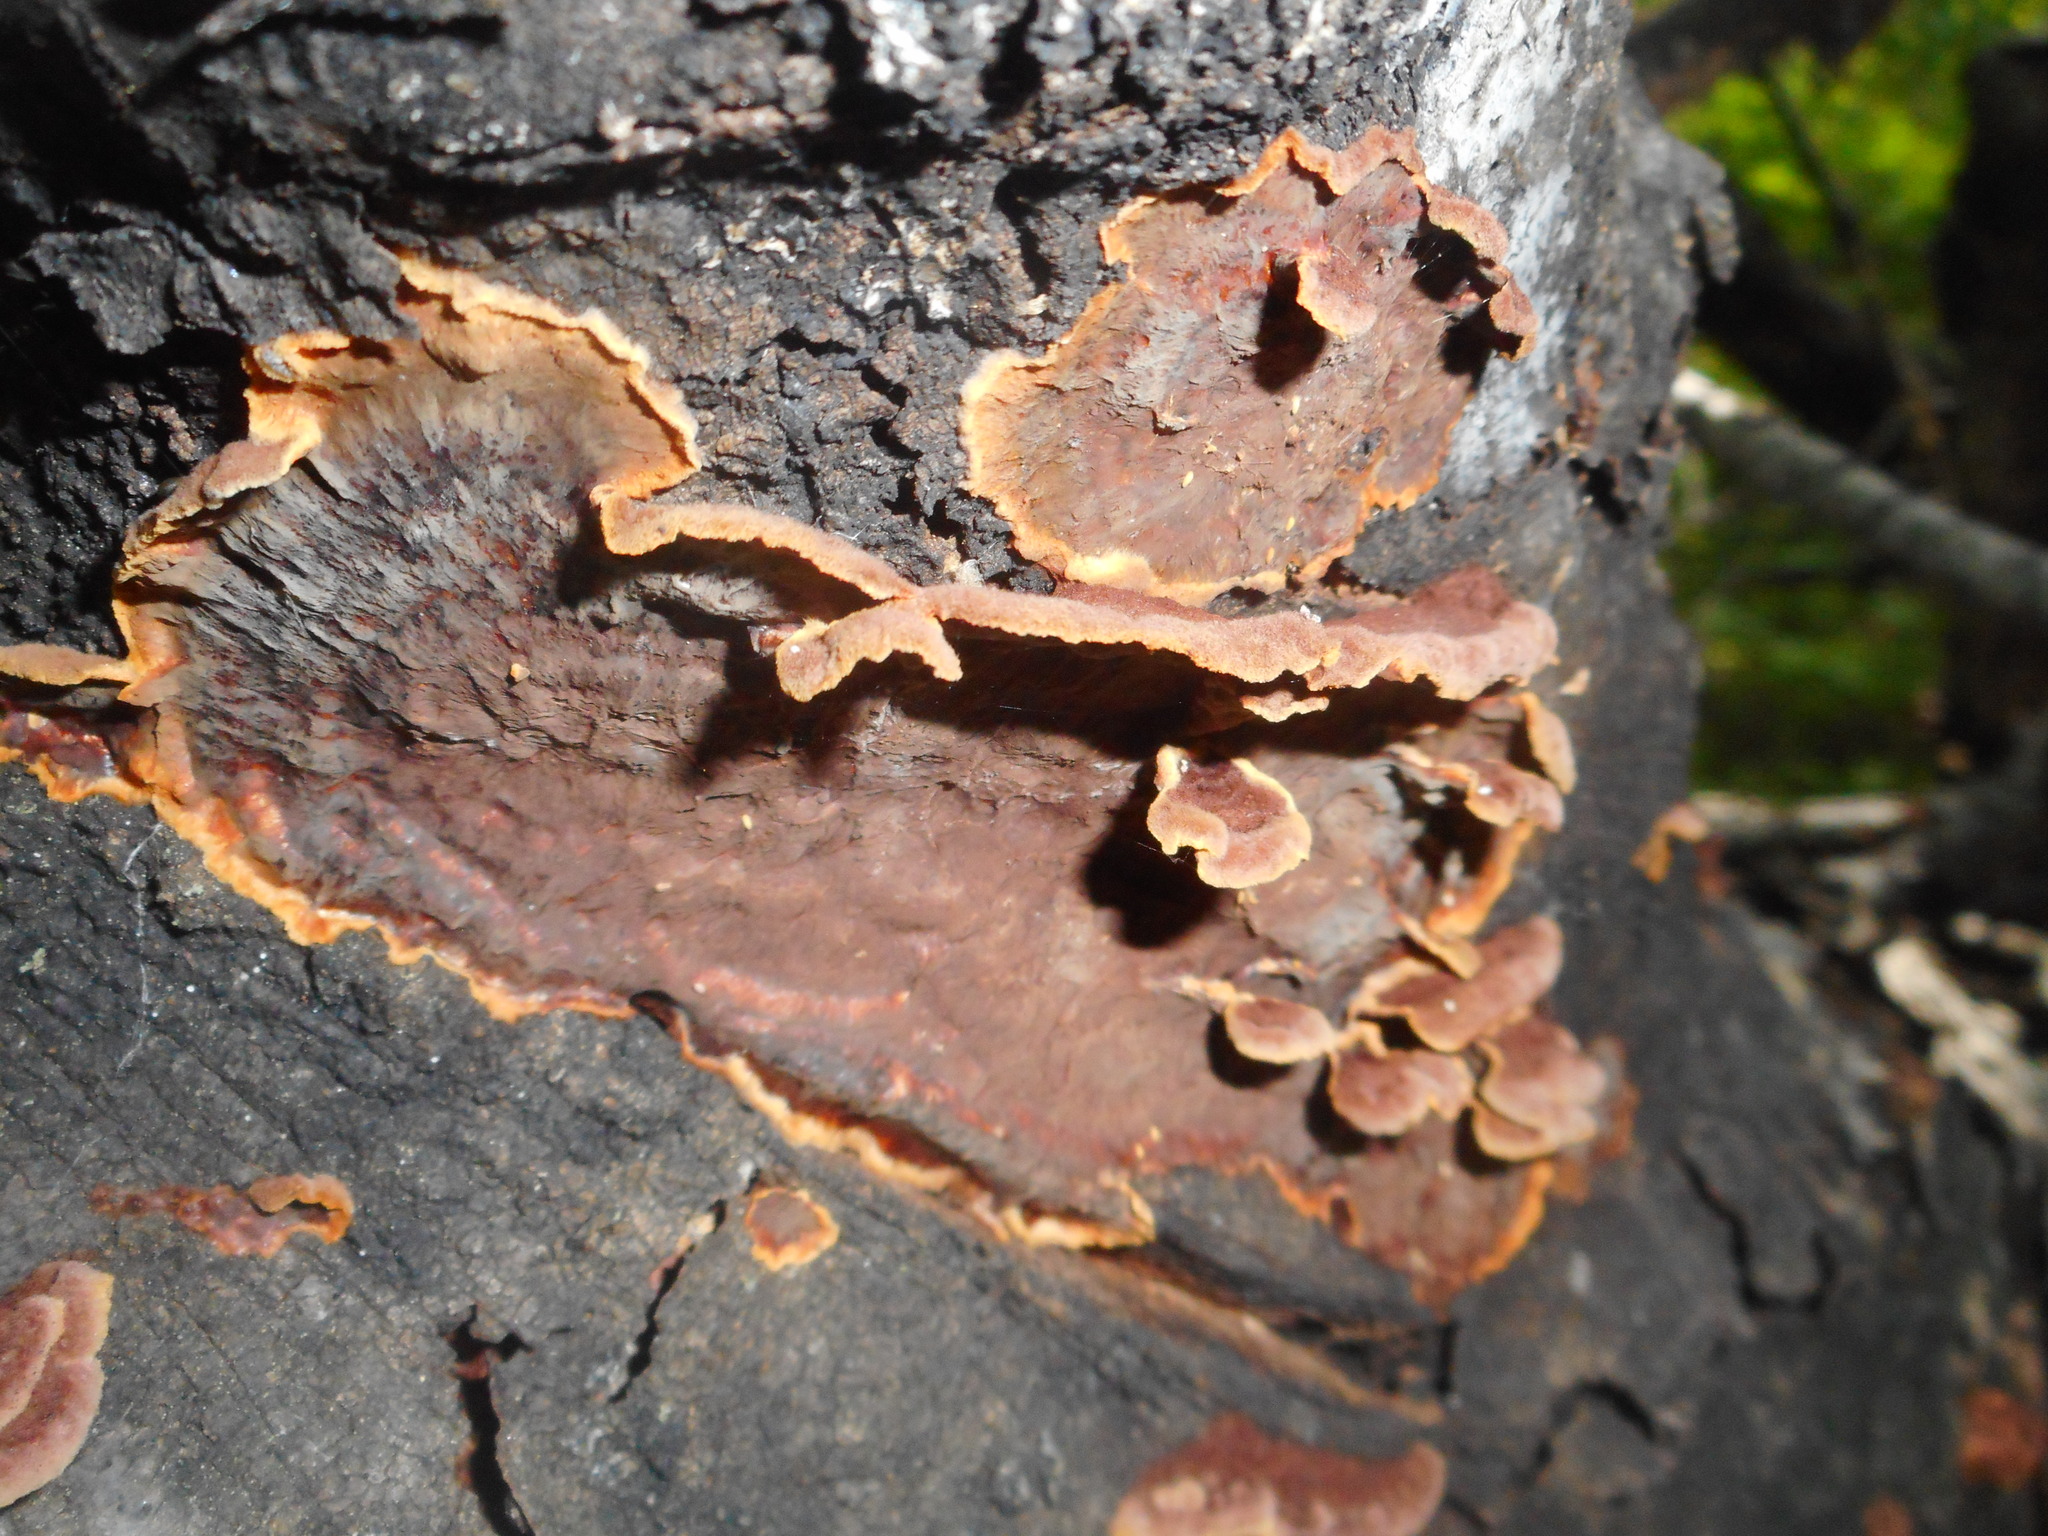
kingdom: Fungi
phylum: Basidiomycota
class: Agaricomycetes
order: Corticiales
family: Punctulariaceae
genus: Punctularia
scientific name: Punctularia strigosozonata
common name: White-rot fungus
